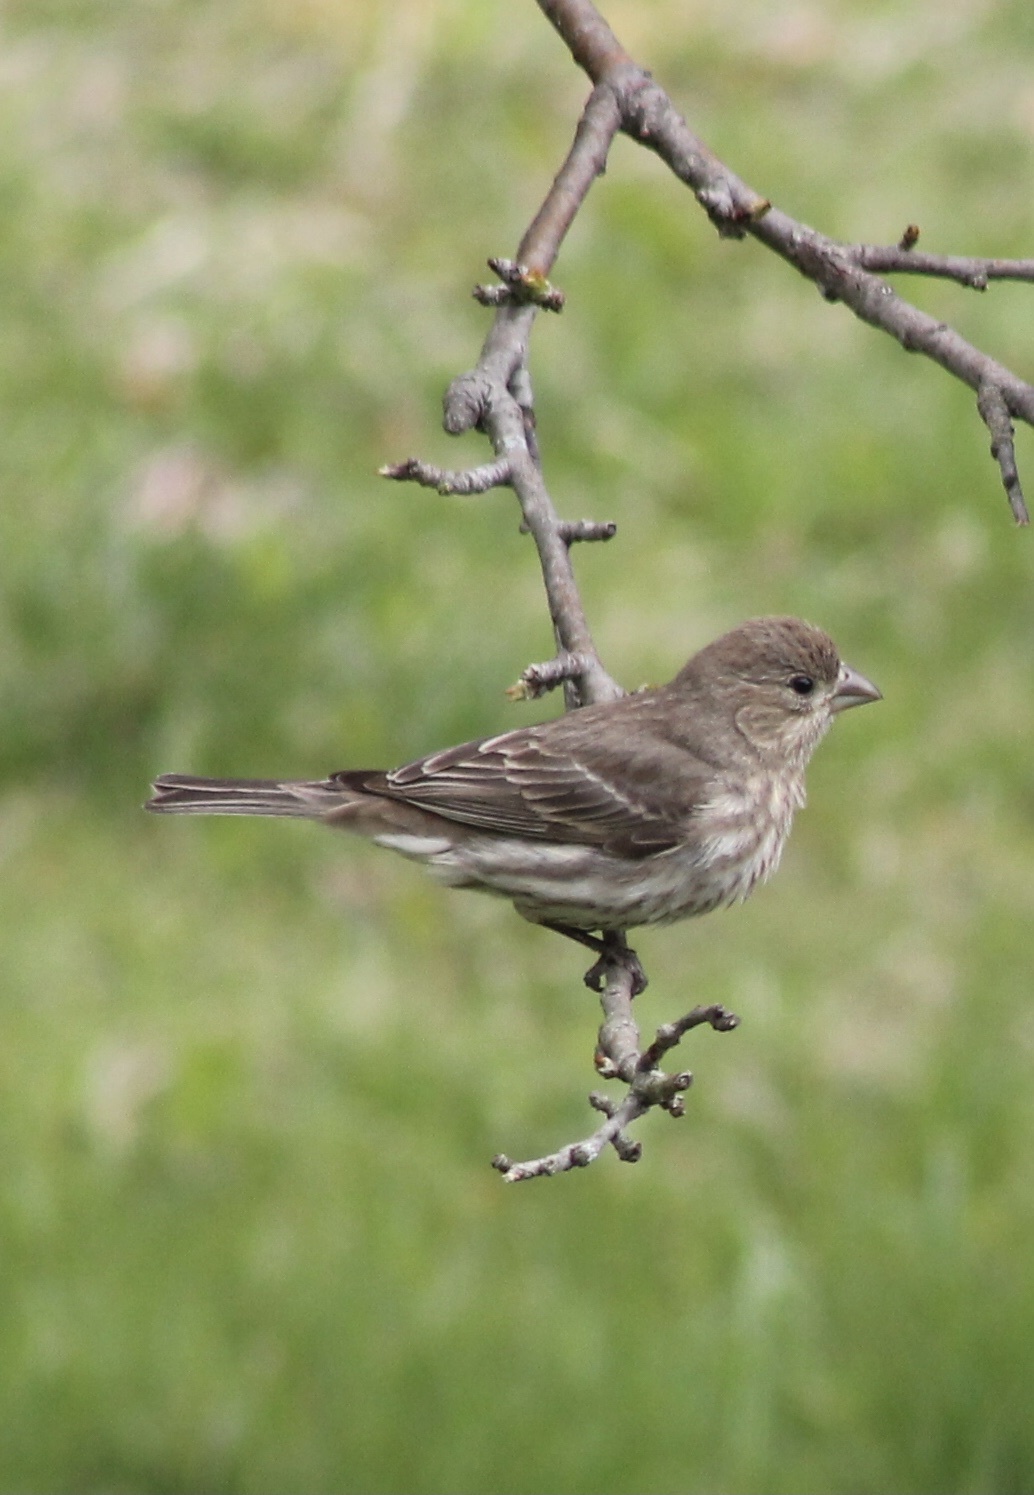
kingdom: Animalia
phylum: Chordata
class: Aves
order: Passeriformes
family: Fringillidae
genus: Haemorhous
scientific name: Haemorhous mexicanus
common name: House finch
